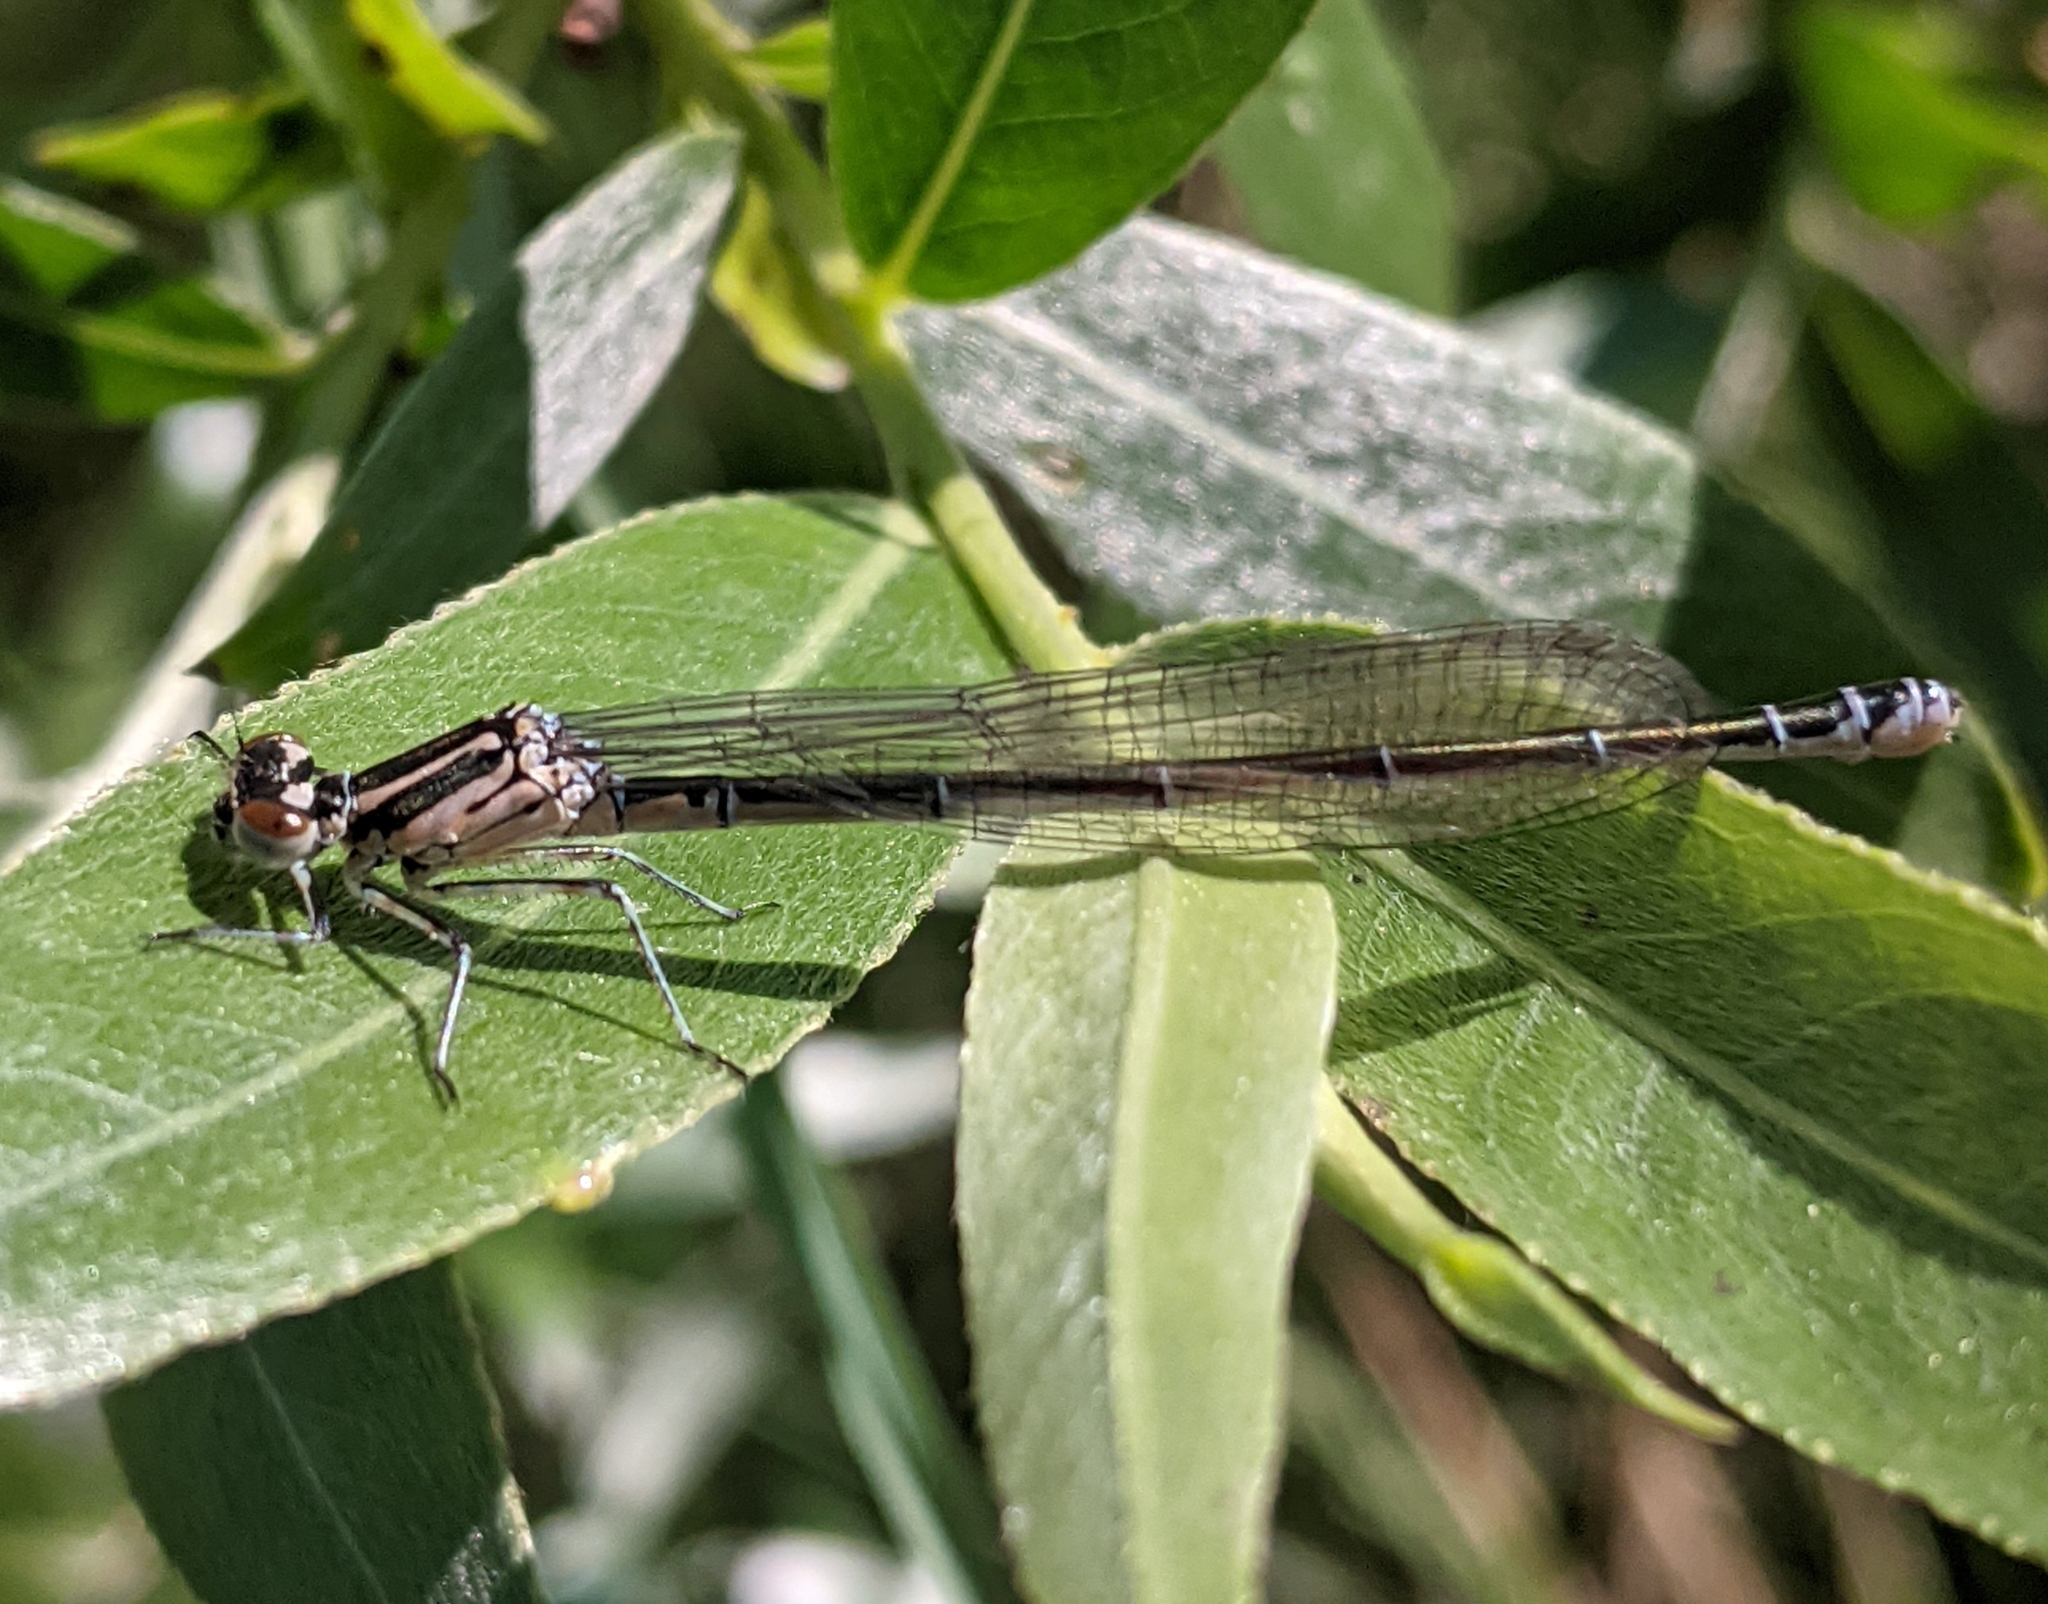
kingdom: Animalia
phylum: Arthropoda
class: Insecta
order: Odonata
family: Coenagrionidae
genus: Coenagrion
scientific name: Coenagrion puella
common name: Azure damselfly
